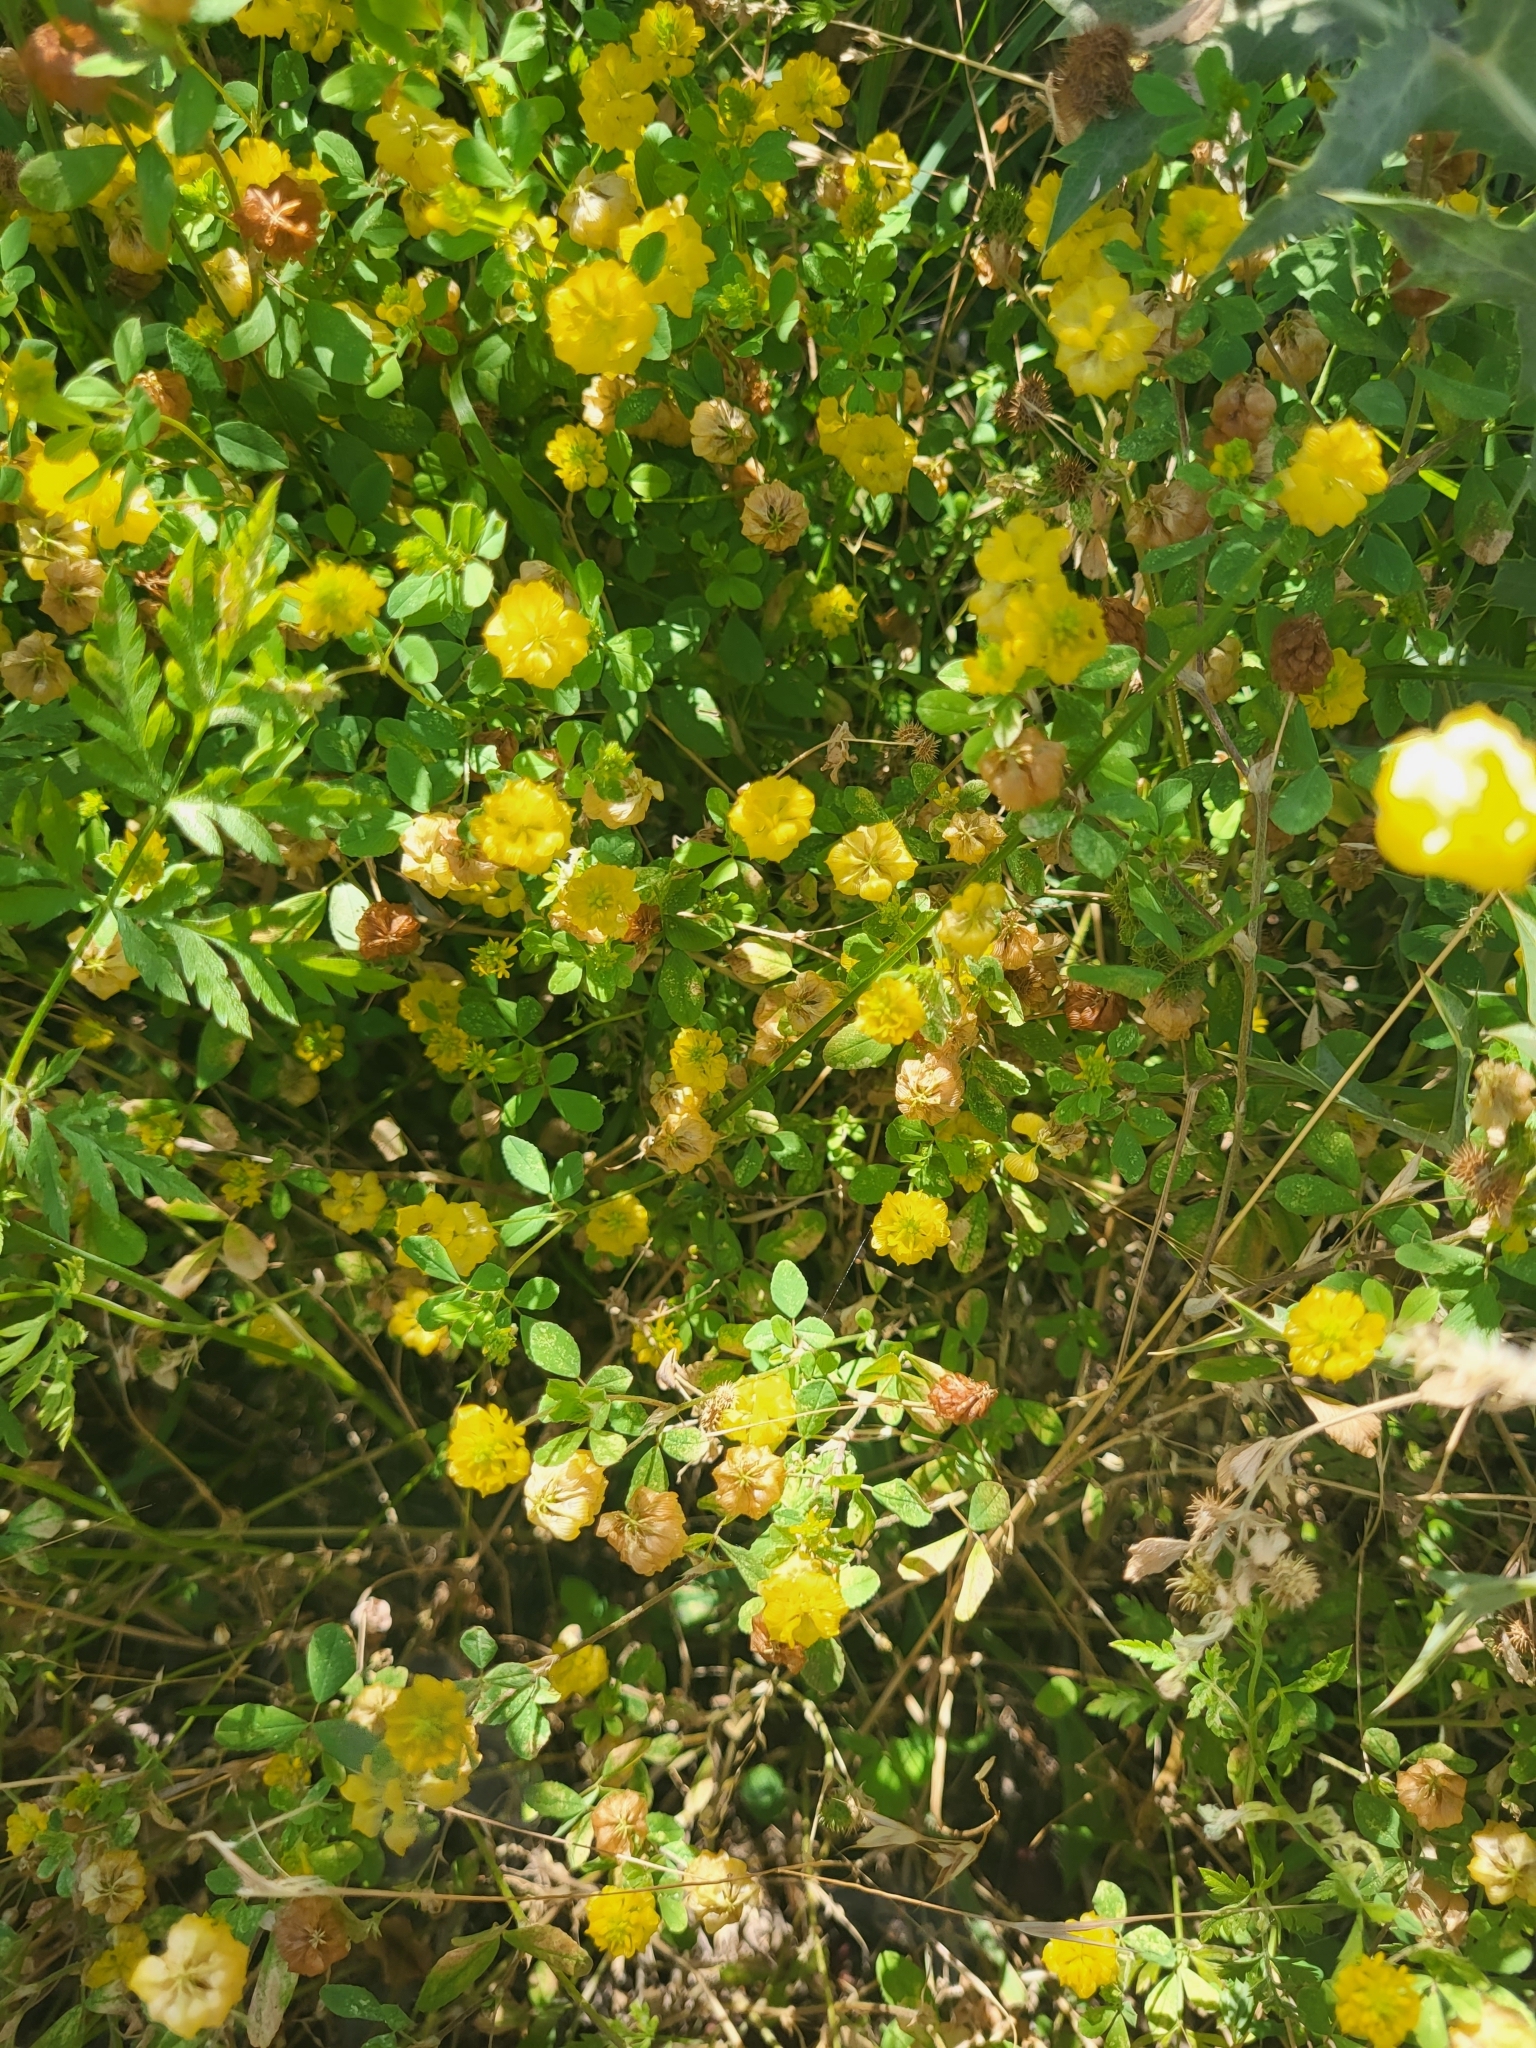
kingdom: Plantae
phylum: Tracheophyta
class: Magnoliopsida
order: Fabales
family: Fabaceae
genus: Trifolium
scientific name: Trifolium campestre
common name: Field clover
